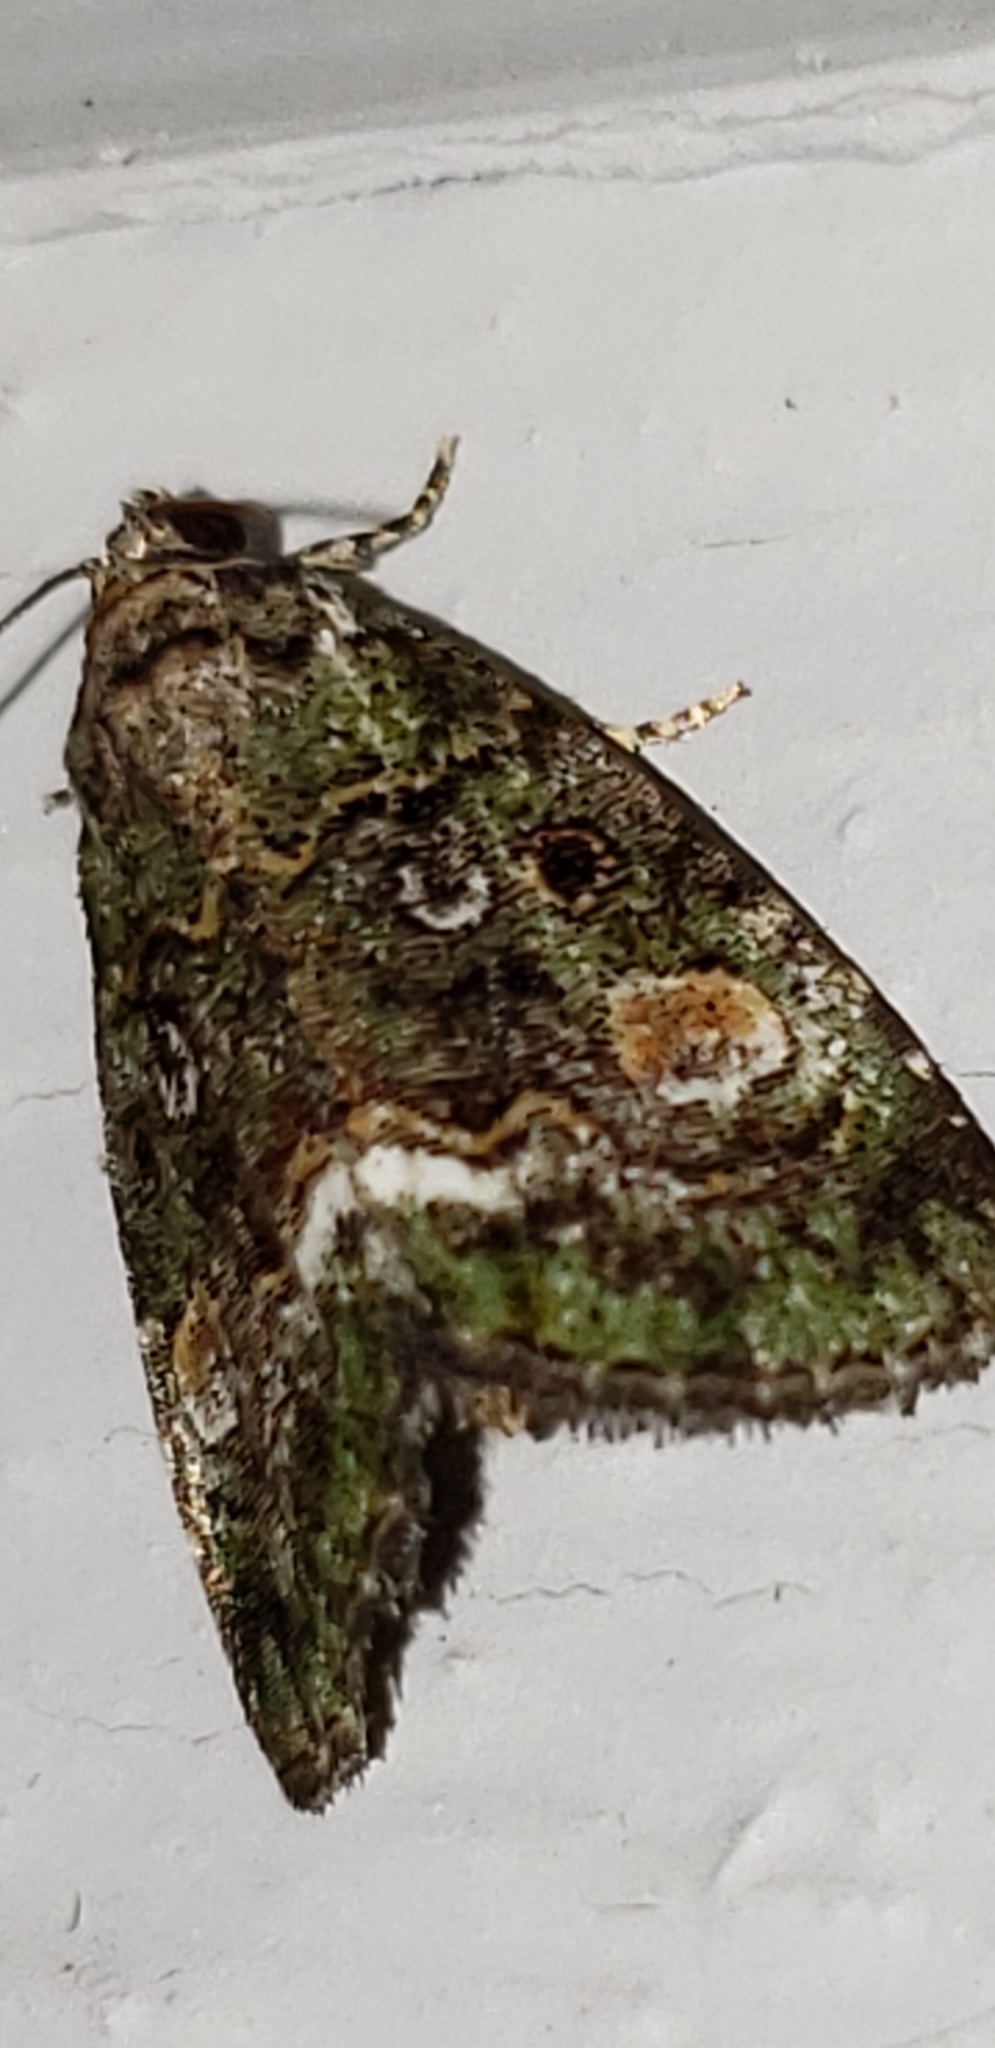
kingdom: Animalia
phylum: Arthropoda
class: Insecta
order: Lepidoptera
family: Noctuidae
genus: Lithacodia
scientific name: Lithacodia musta
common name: Small mossy glyph
